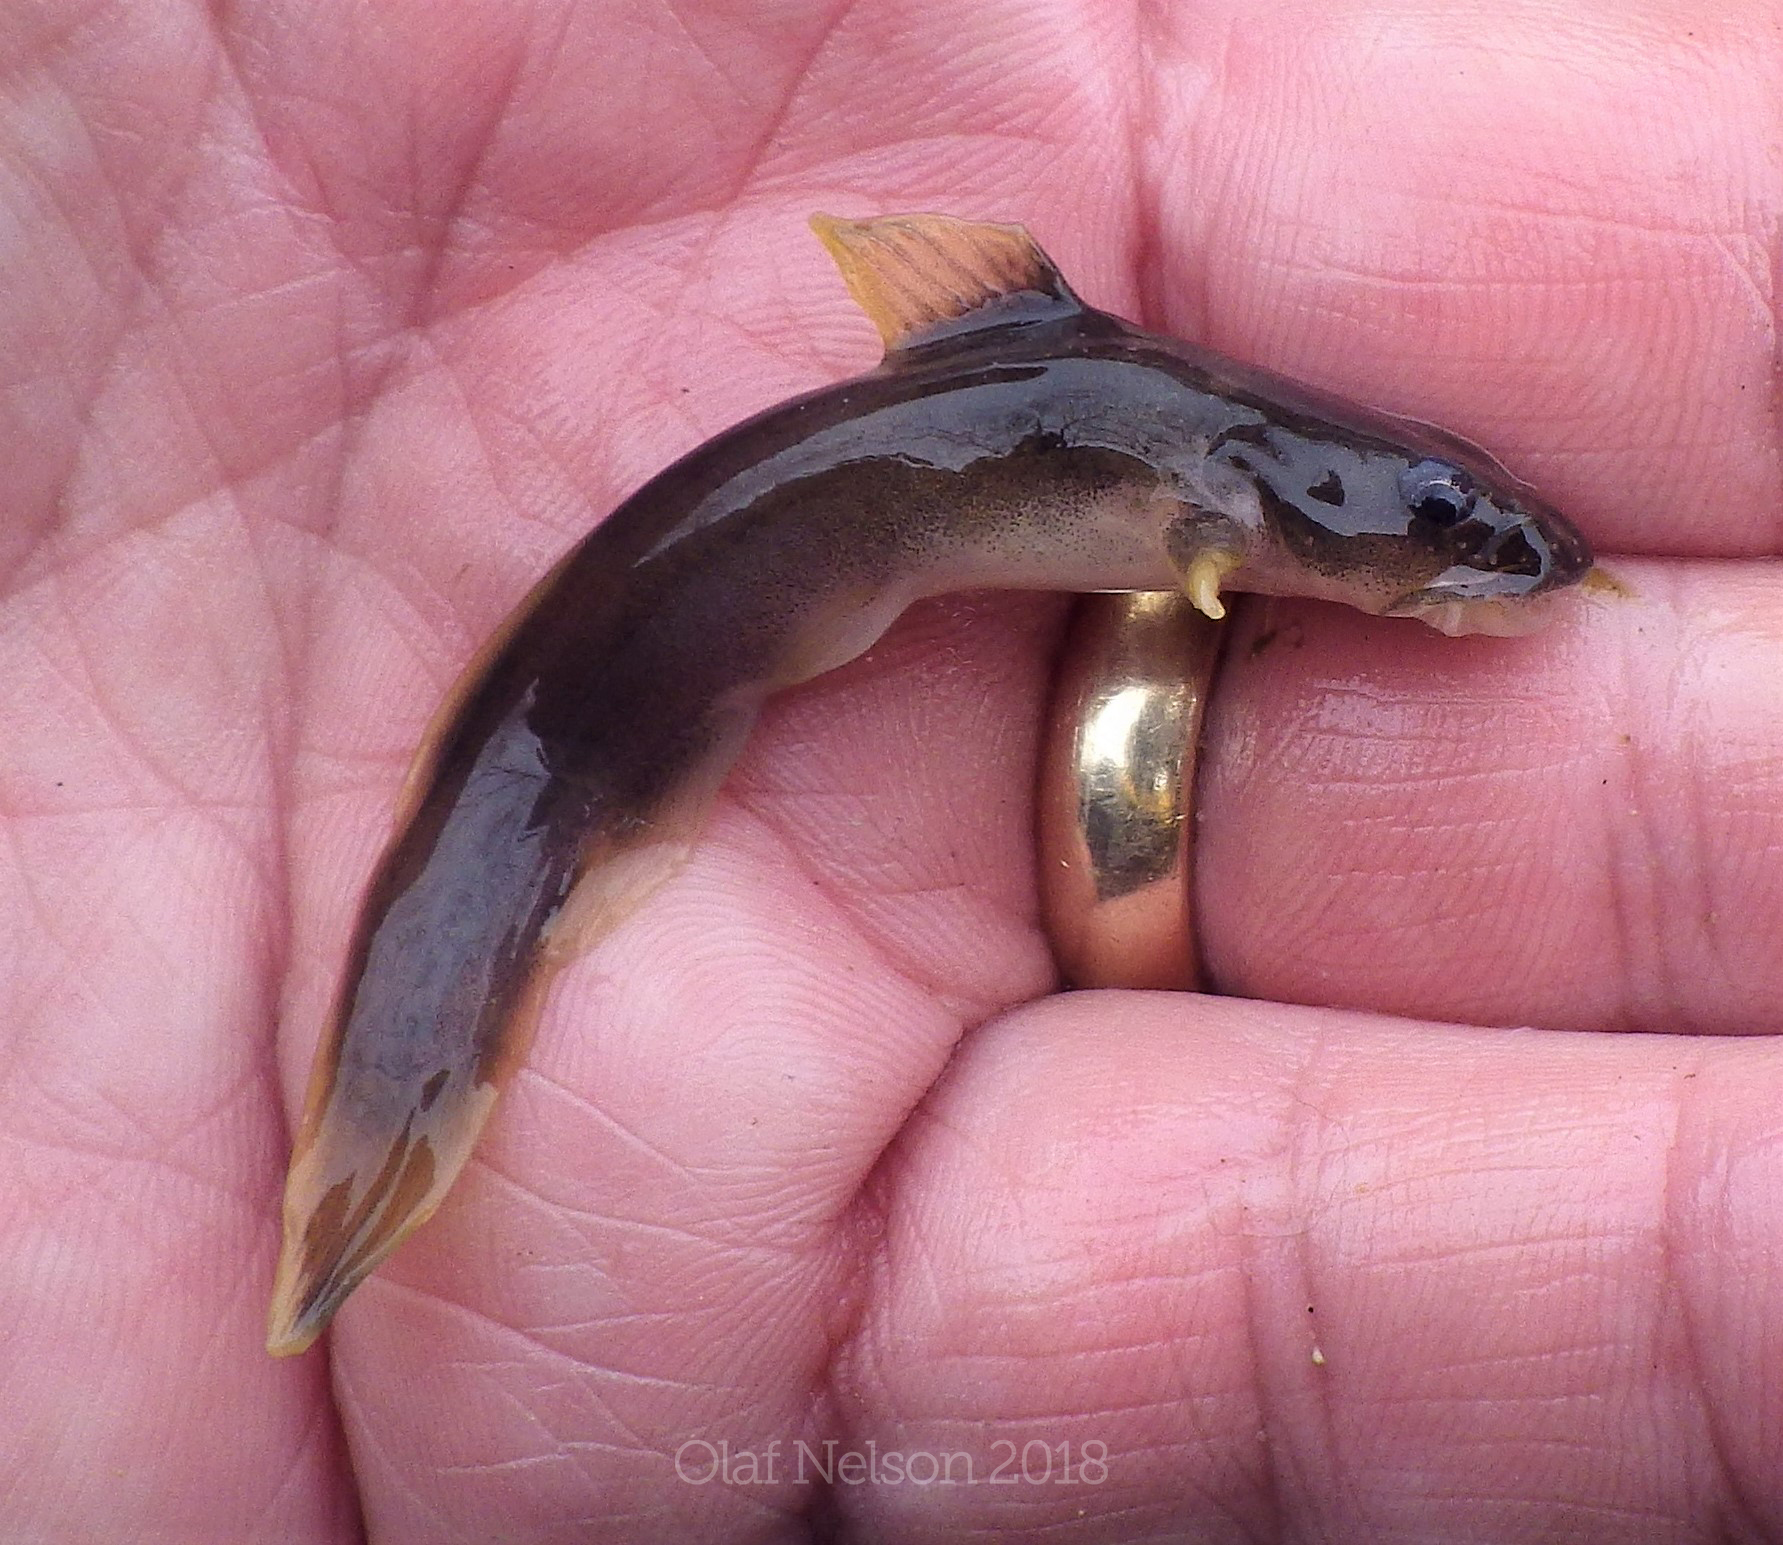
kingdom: Animalia
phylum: Chordata
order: Siluriformes
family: Ictaluridae
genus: Noturus
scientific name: Noturus flavus
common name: Stonecat
